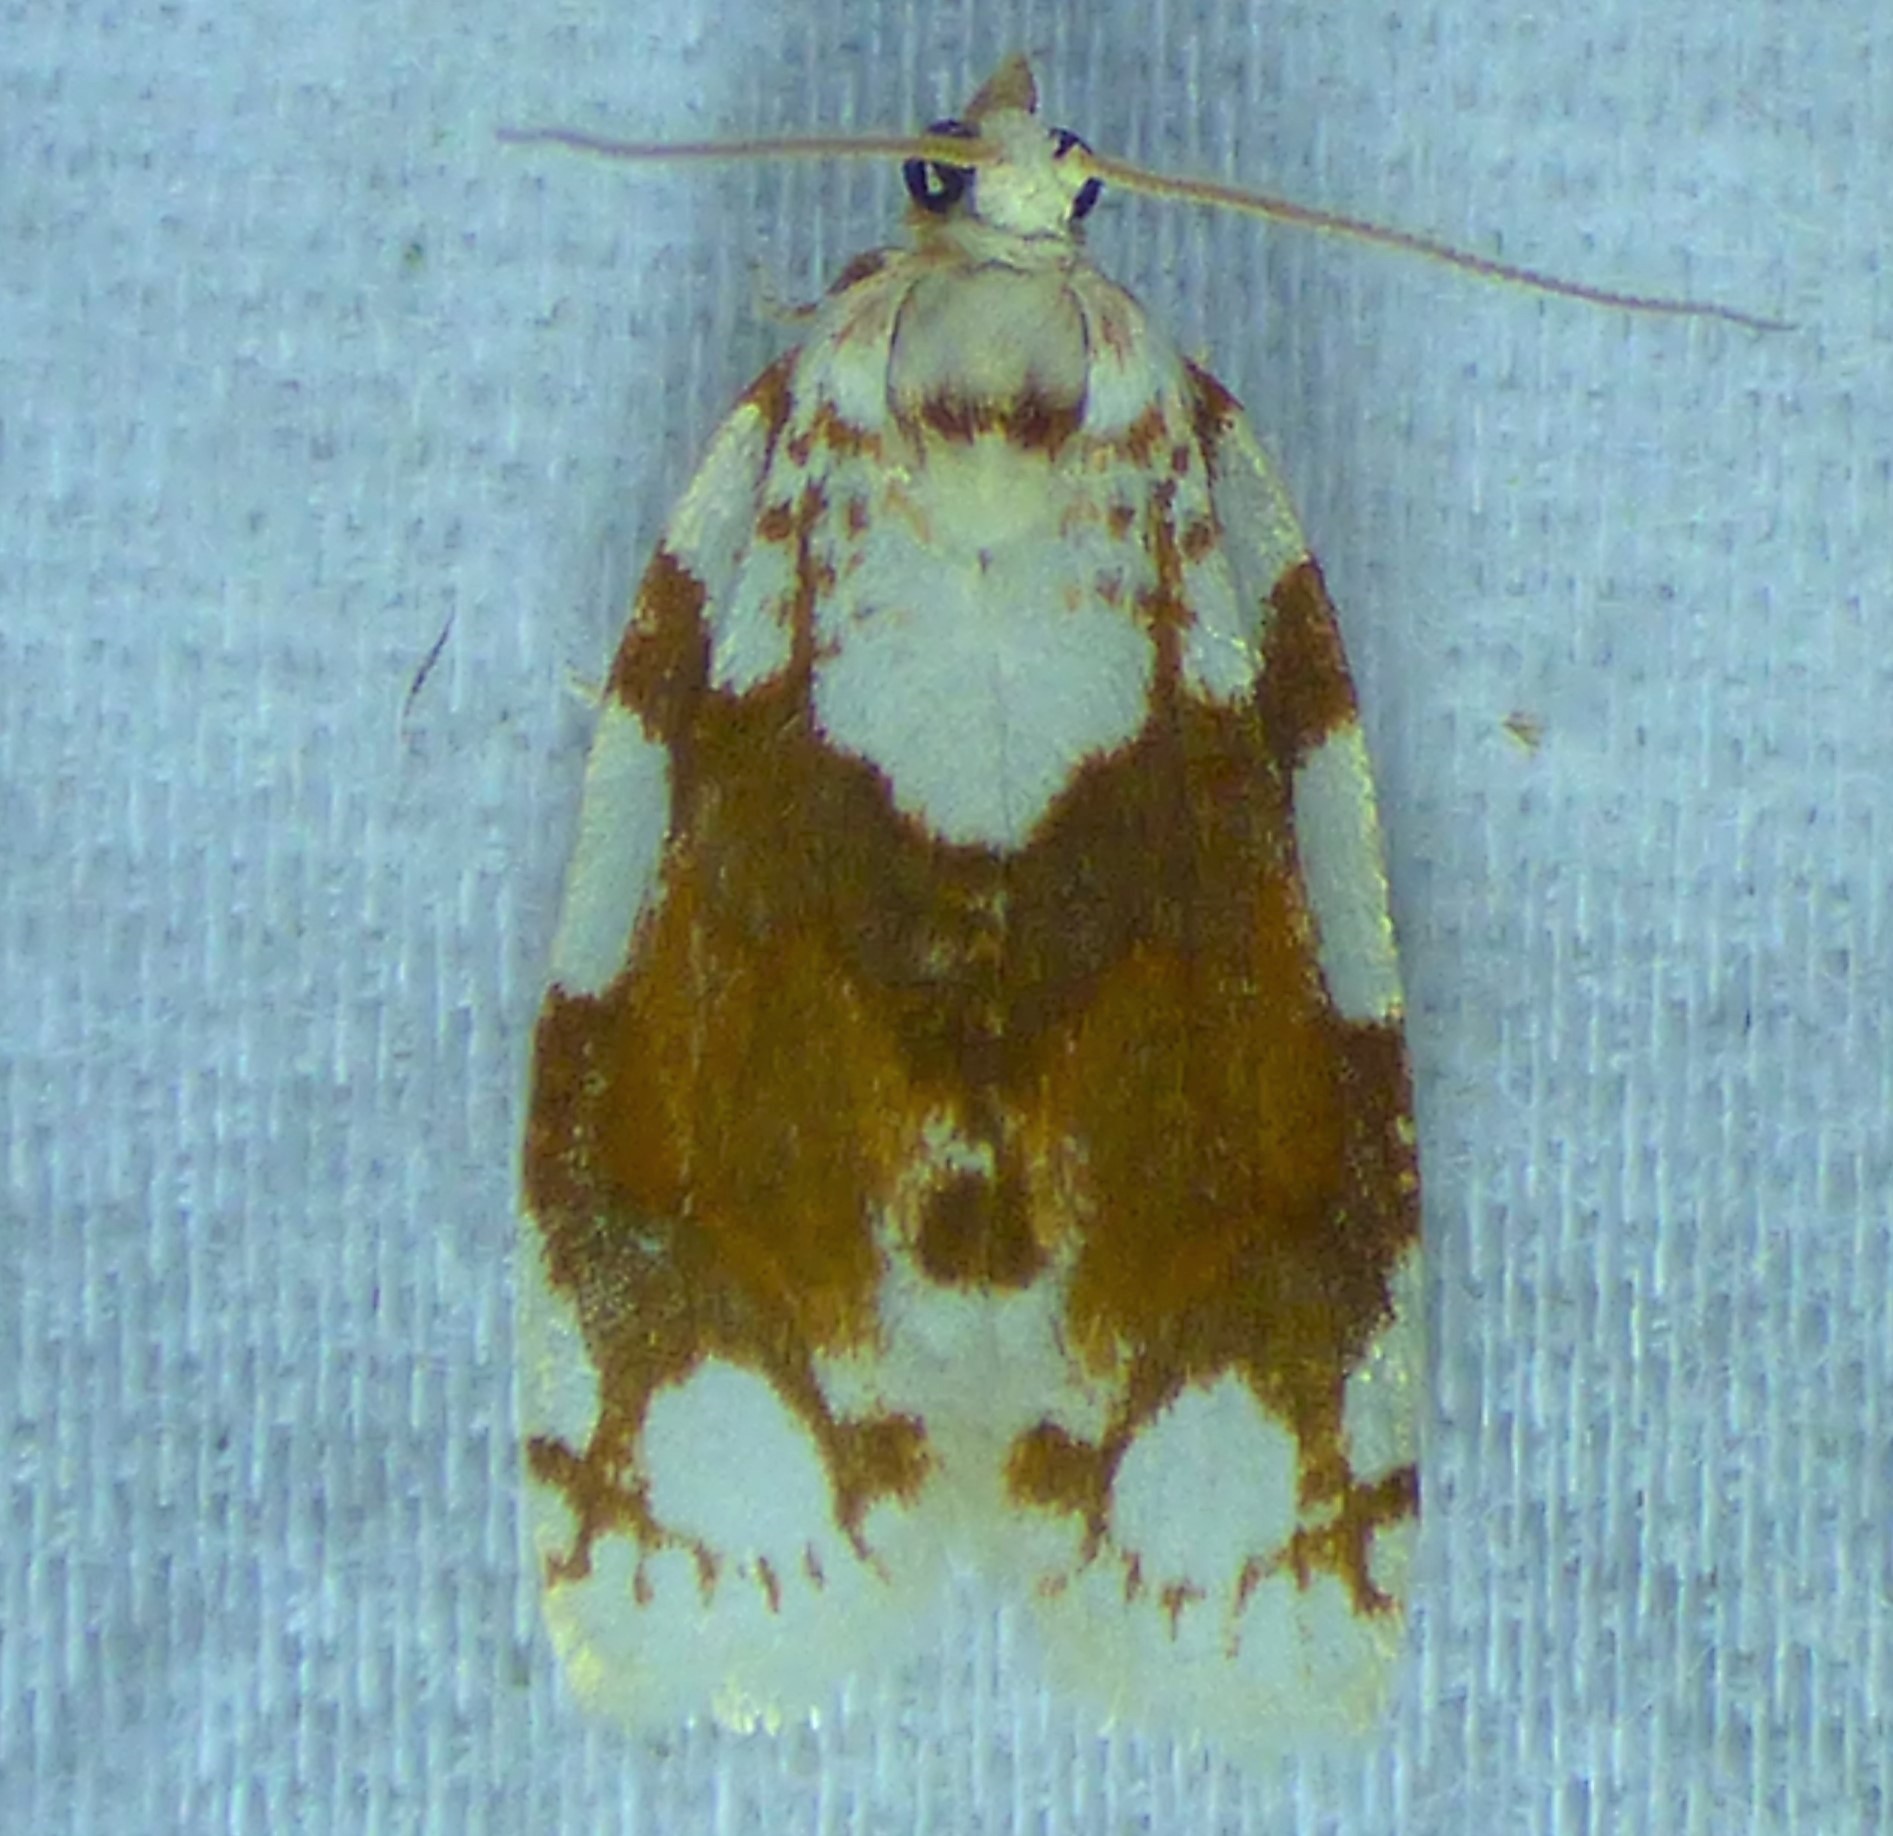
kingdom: Animalia
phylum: Arthropoda
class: Insecta
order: Lepidoptera
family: Tortricidae
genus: Argyrotaenia
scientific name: Argyrotaenia alisellana
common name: White-spotted leafroller moth
